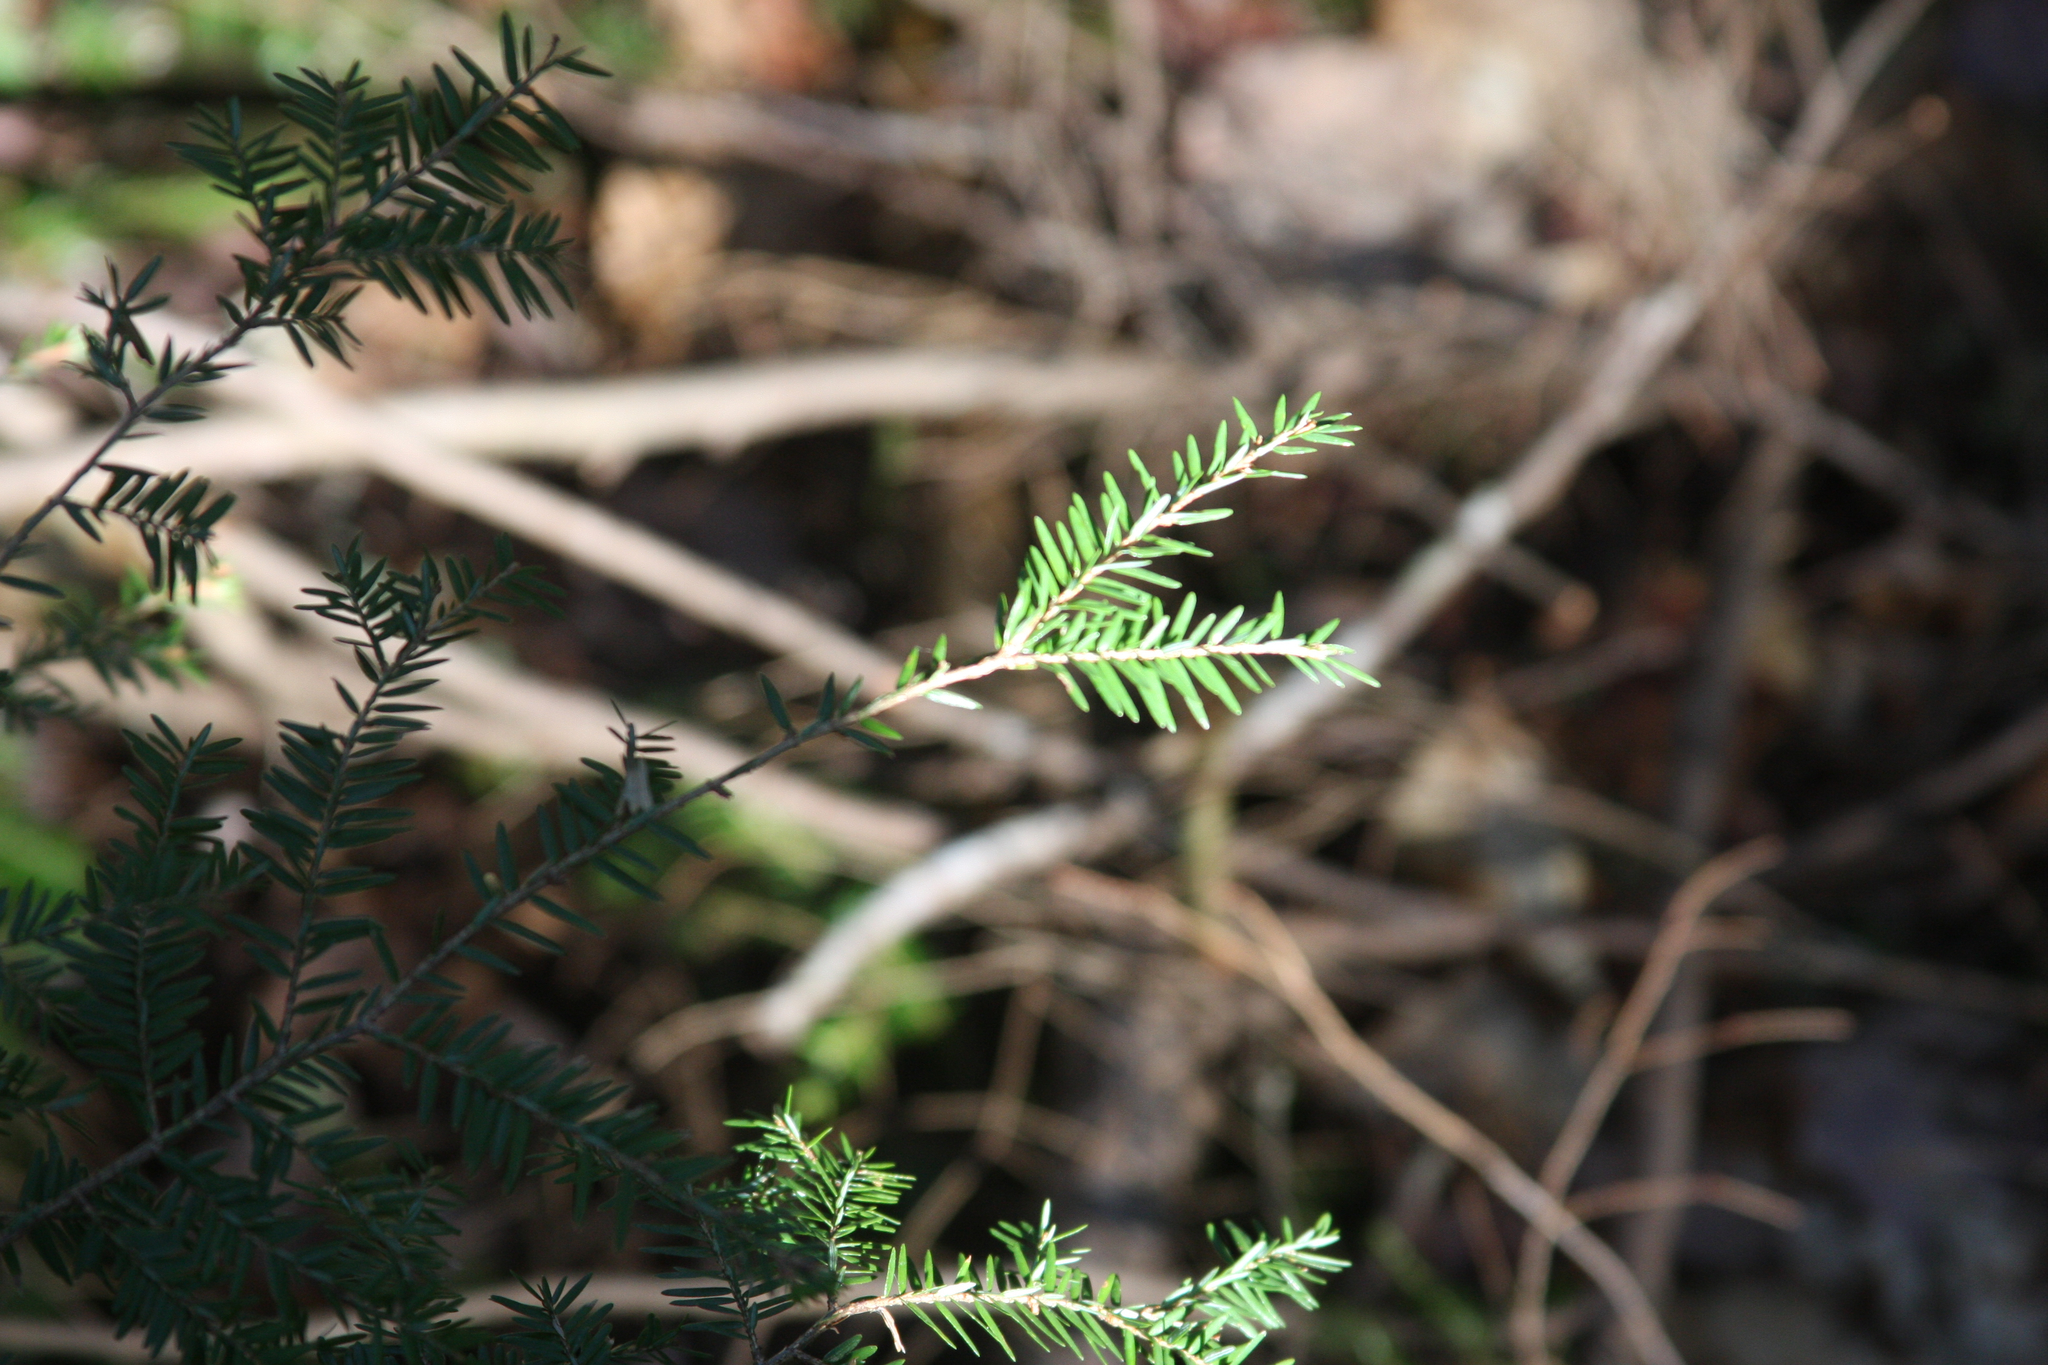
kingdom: Plantae
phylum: Tracheophyta
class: Pinopsida
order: Pinales
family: Pinaceae
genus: Tsuga
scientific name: Tsuga canadensis
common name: Eastern hemlock
